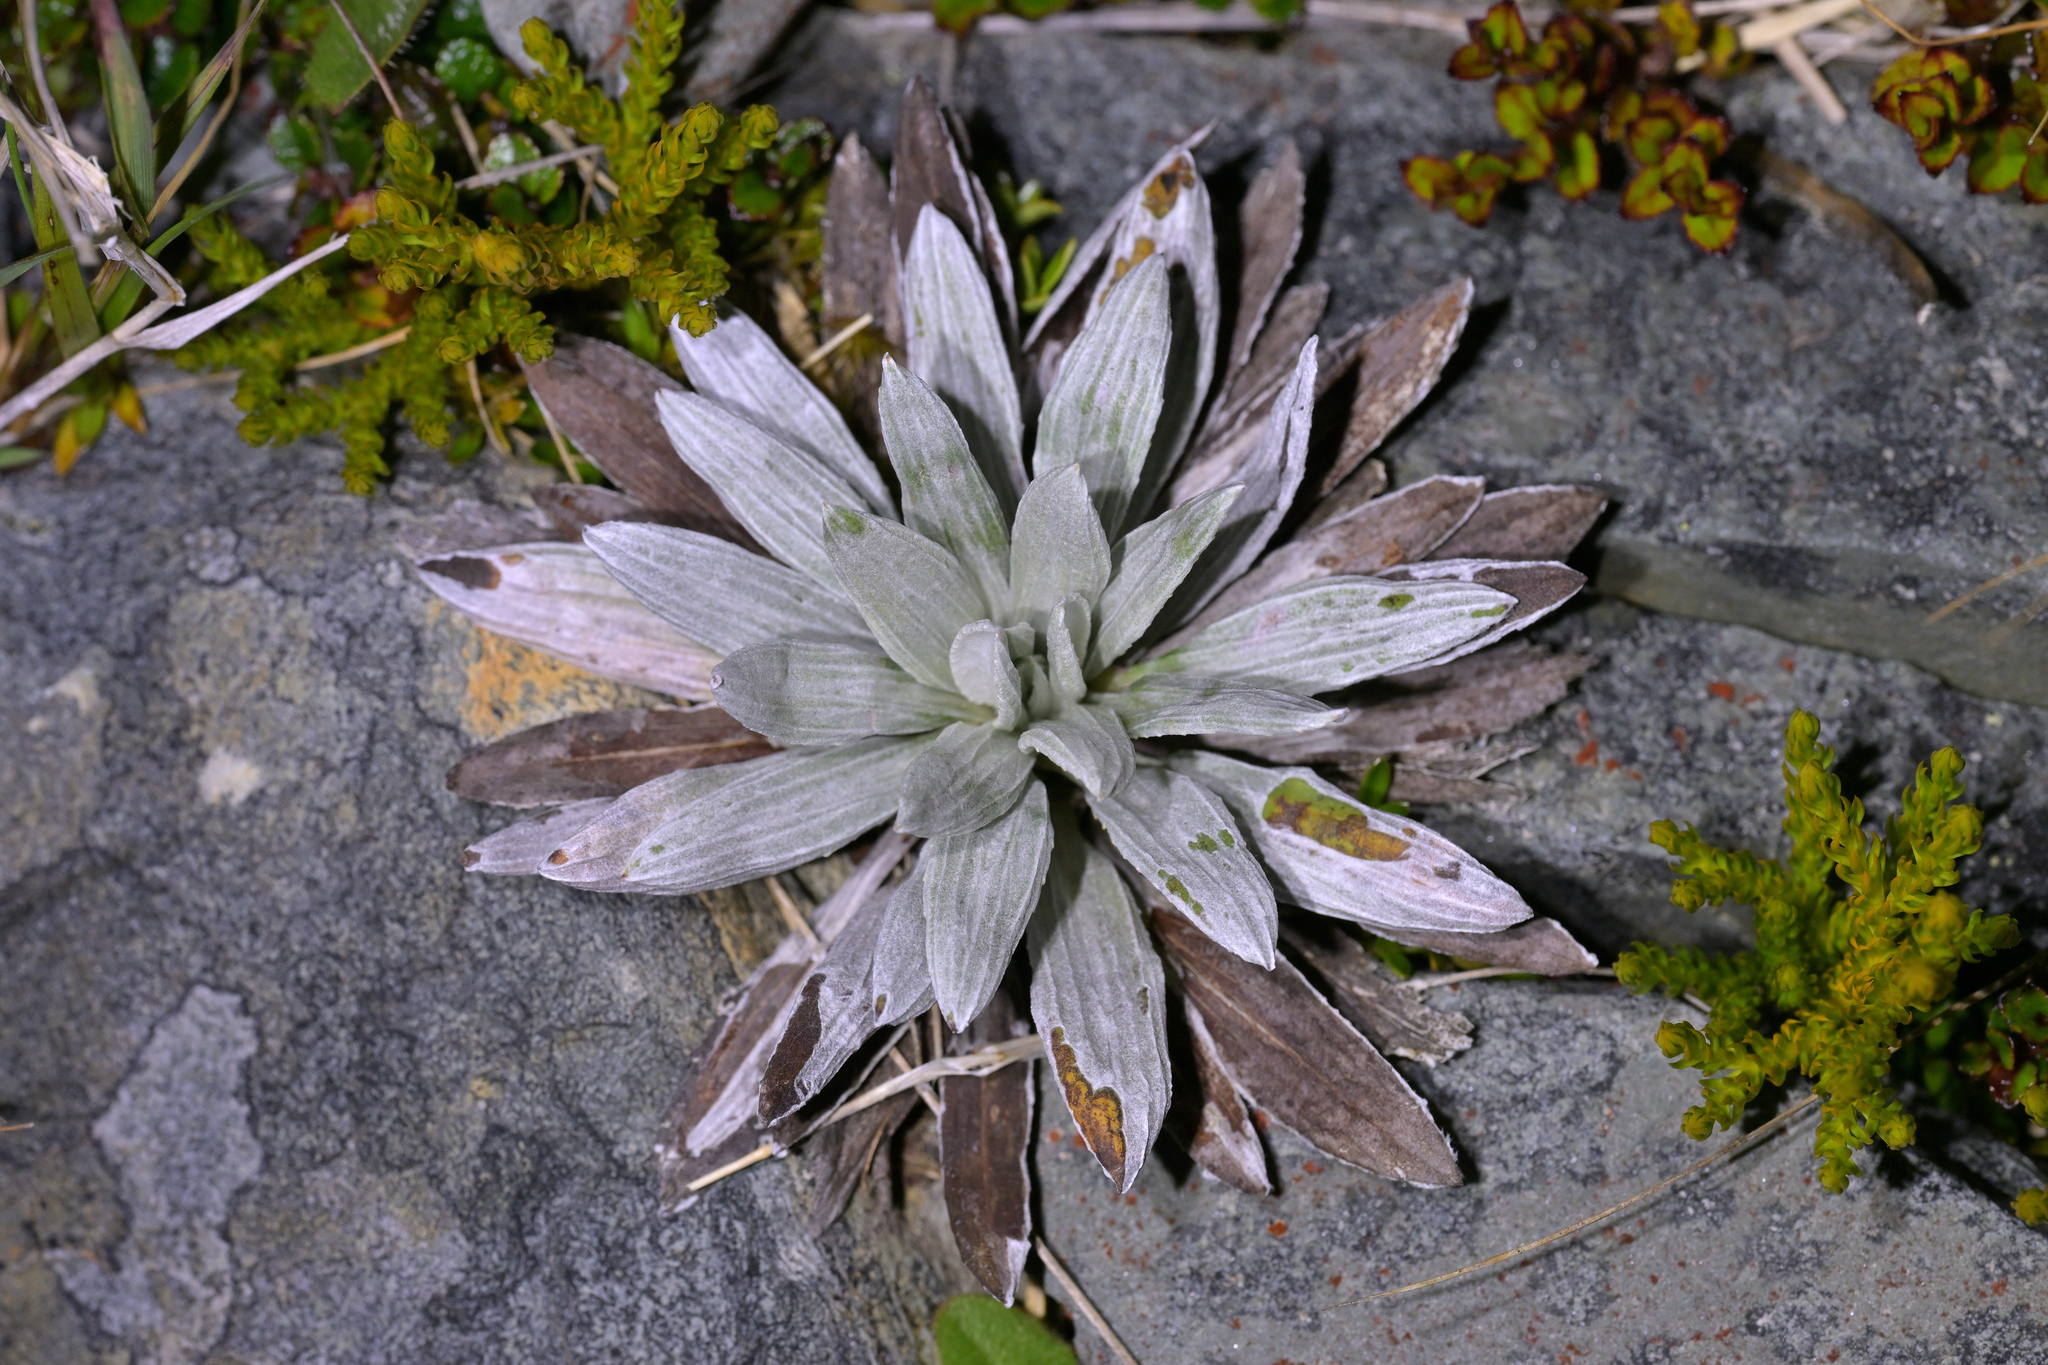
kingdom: Plantae
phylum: Tracheophyta
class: Magnoliopsida
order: Asterales
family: Asteraceae
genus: Celmisia
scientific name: Celmisia semicordata
